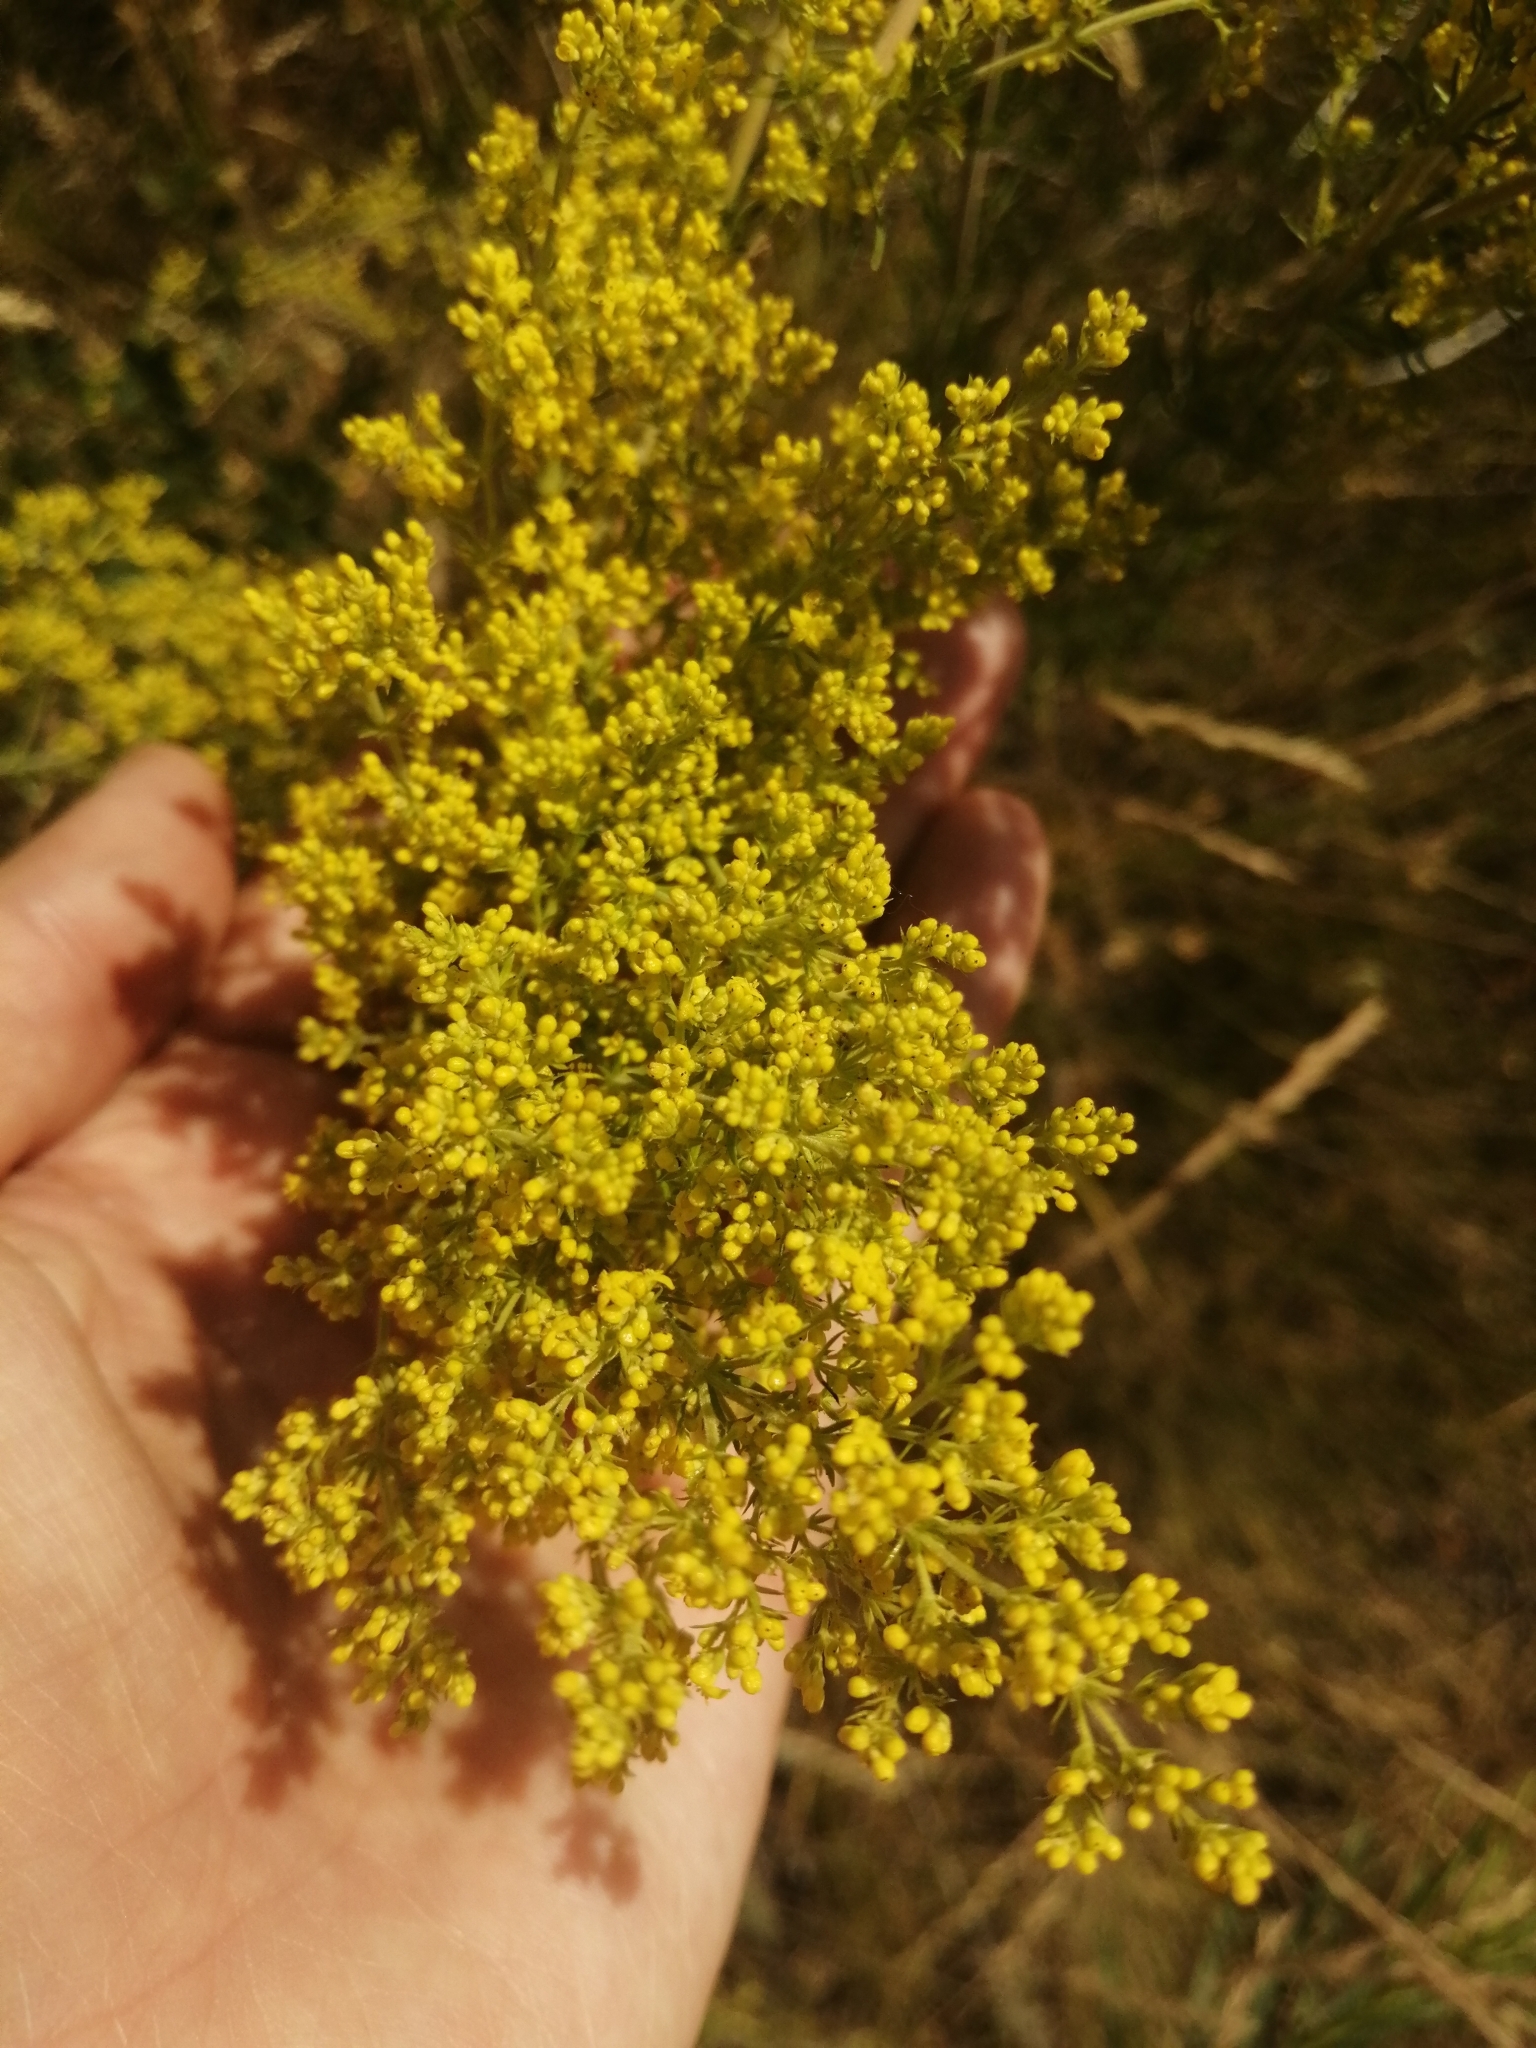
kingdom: Plantae
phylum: Tracheophyta
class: Magnoliopsida
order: Gentianales
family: Rubiaceae
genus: Galium
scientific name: Galium verum
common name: Lady's bedstraw
